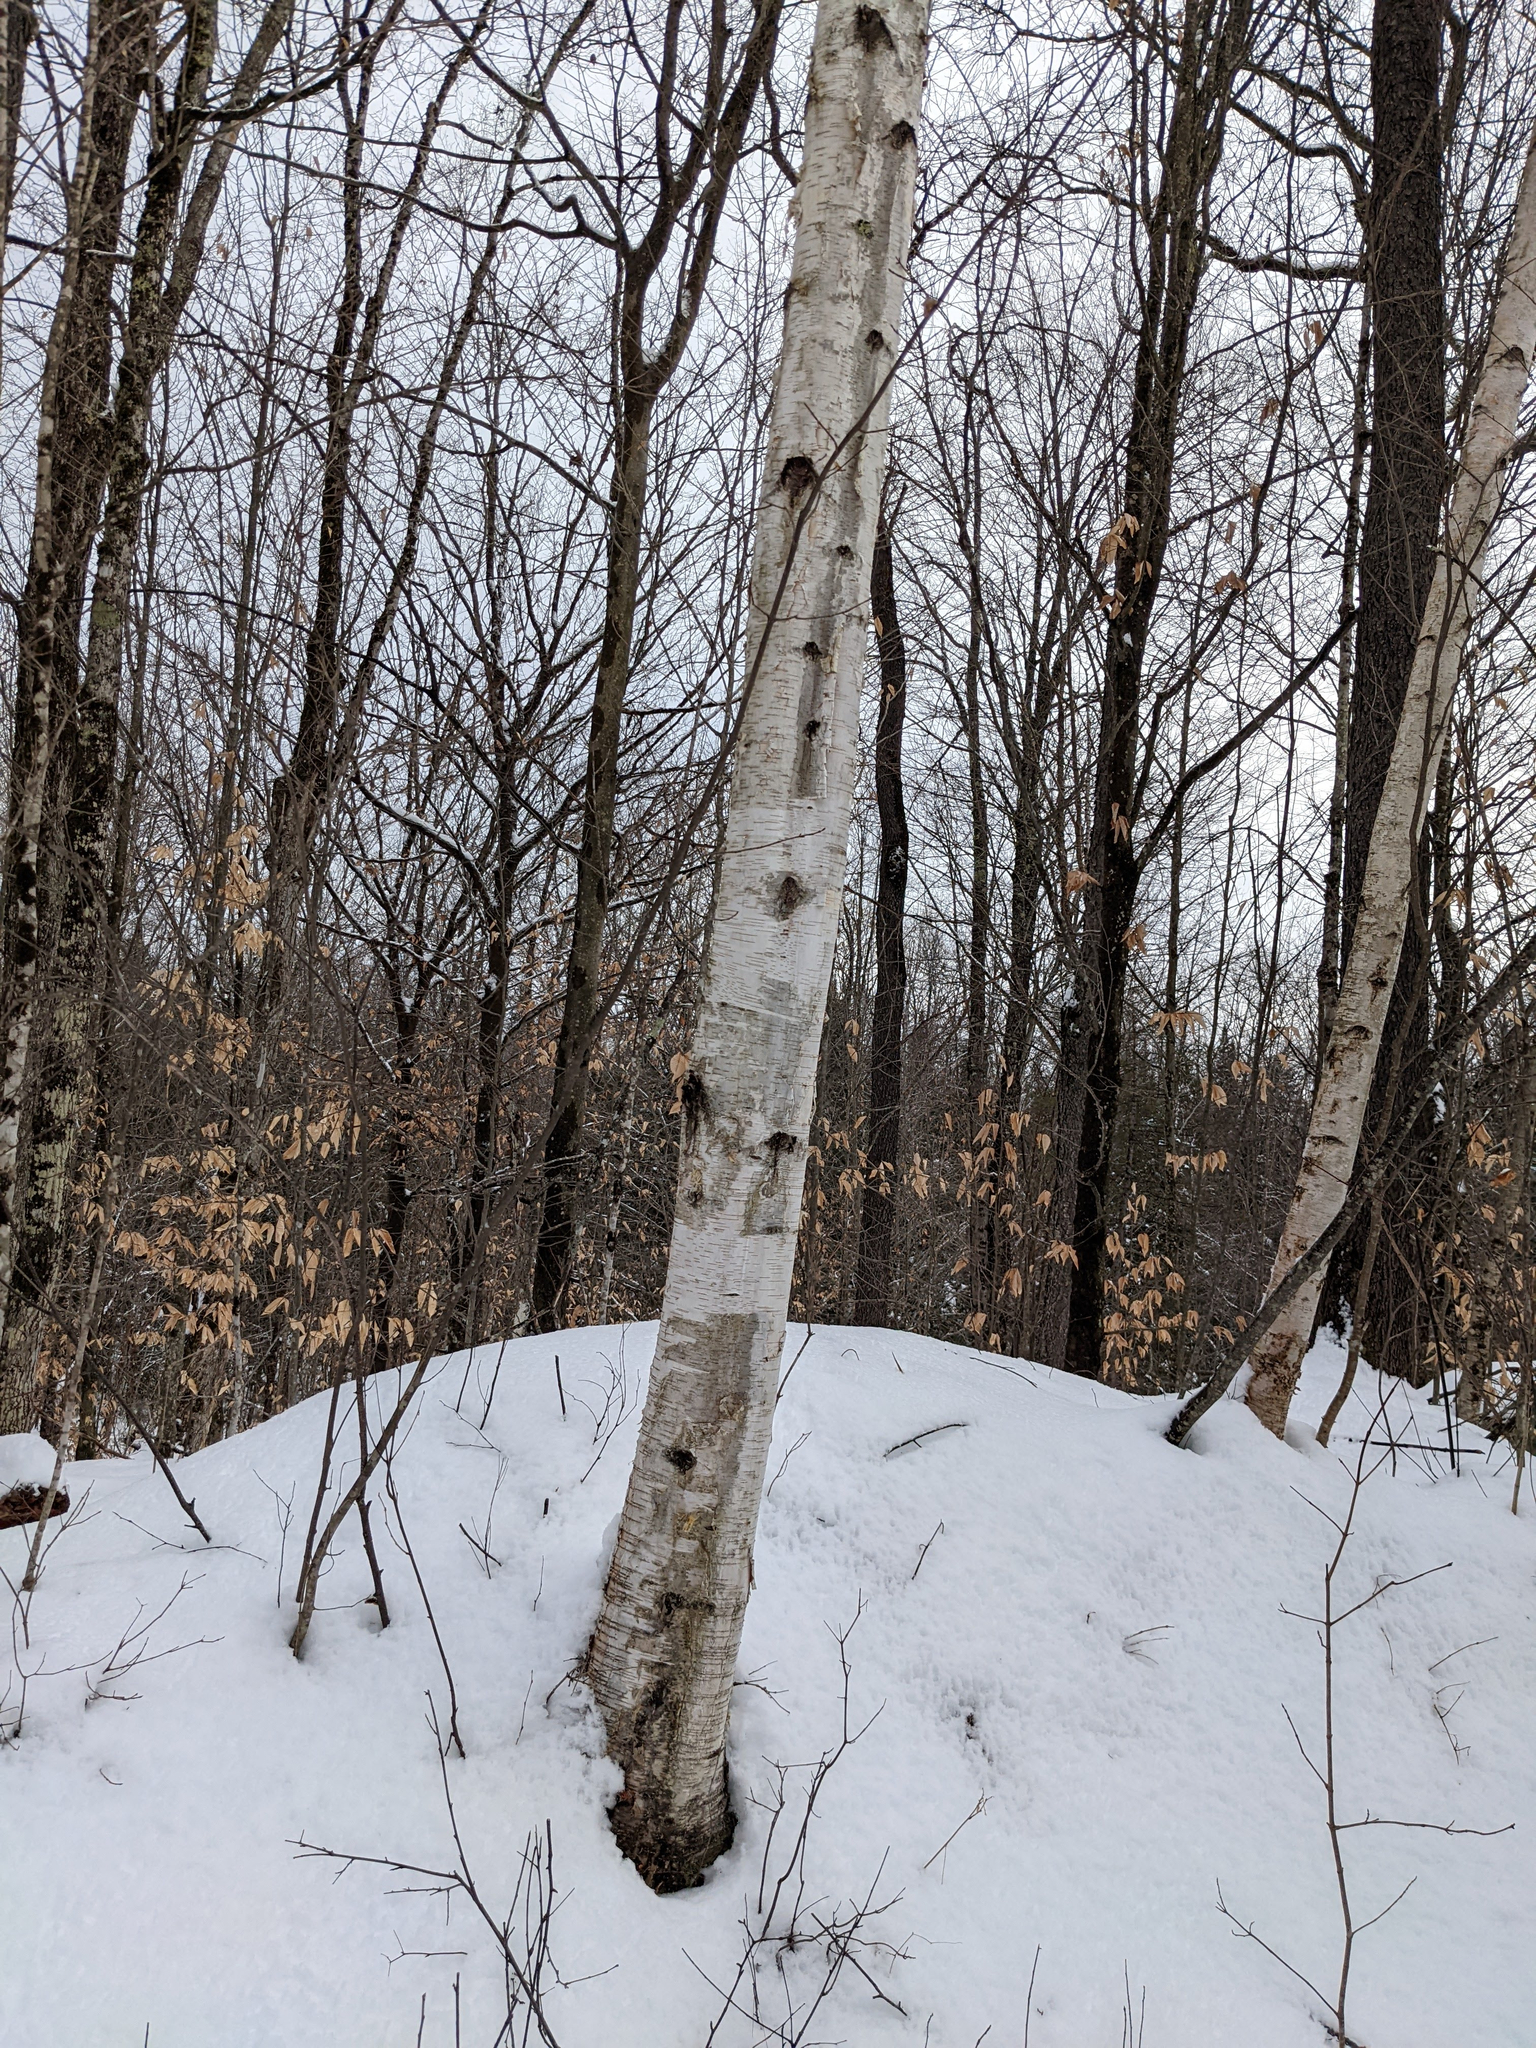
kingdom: Plantae
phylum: Tracheophyta
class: Magnoliopsida
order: Fagales
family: Betulaceae
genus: Betula
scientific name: Betula papyrifera
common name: Paper birch
